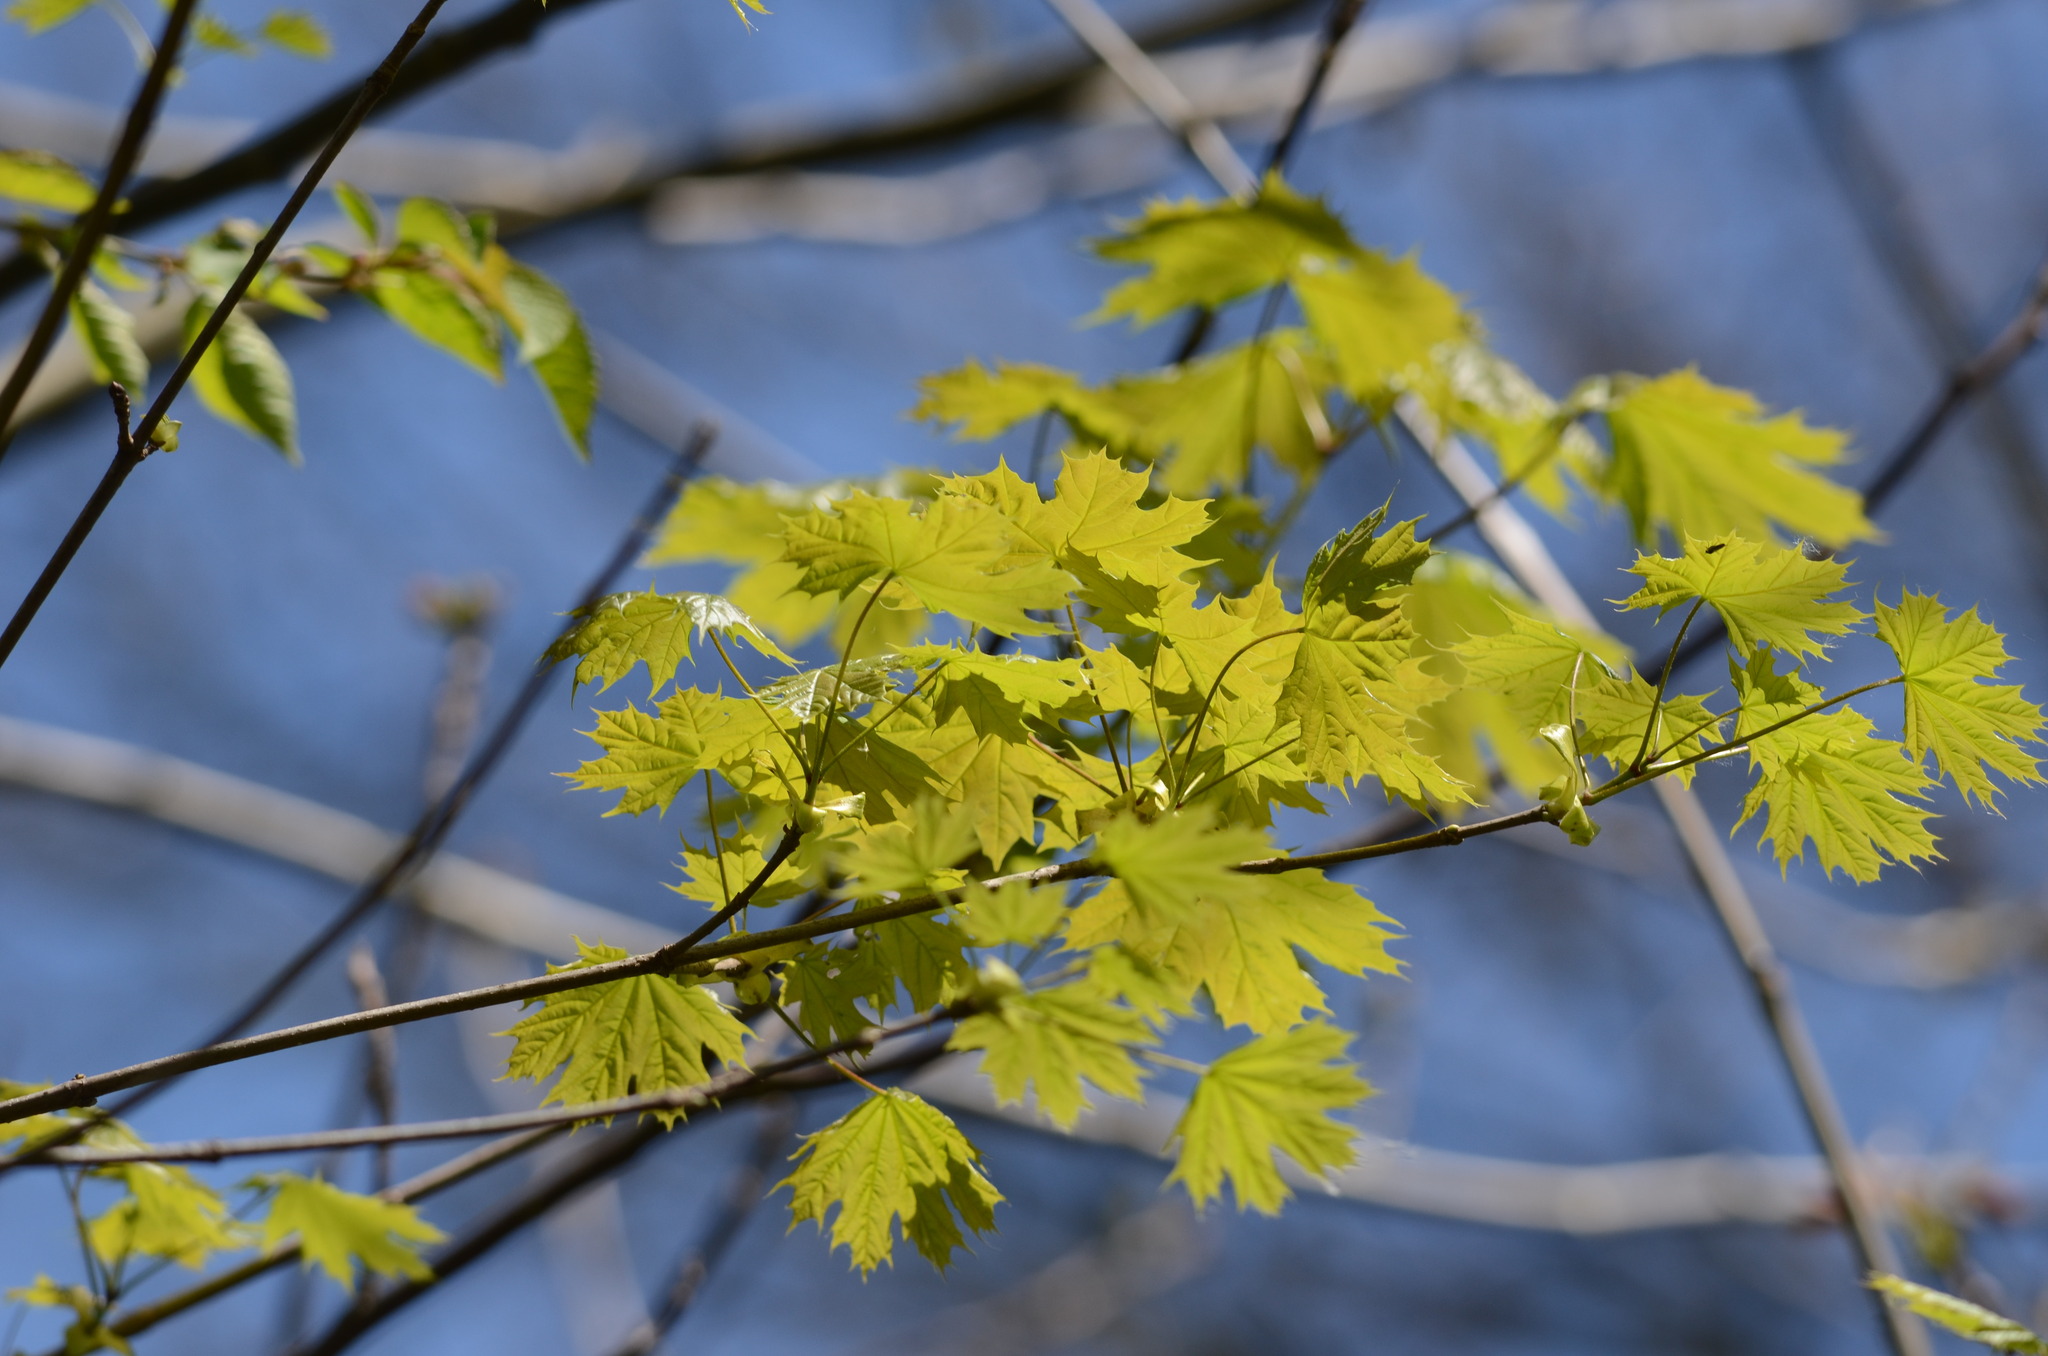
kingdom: Plantae
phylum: Tracheophyta
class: Magnoliopsida
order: Sapindales
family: Sapindaceae
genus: Acer
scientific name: Acer platanoides
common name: Norway maple
